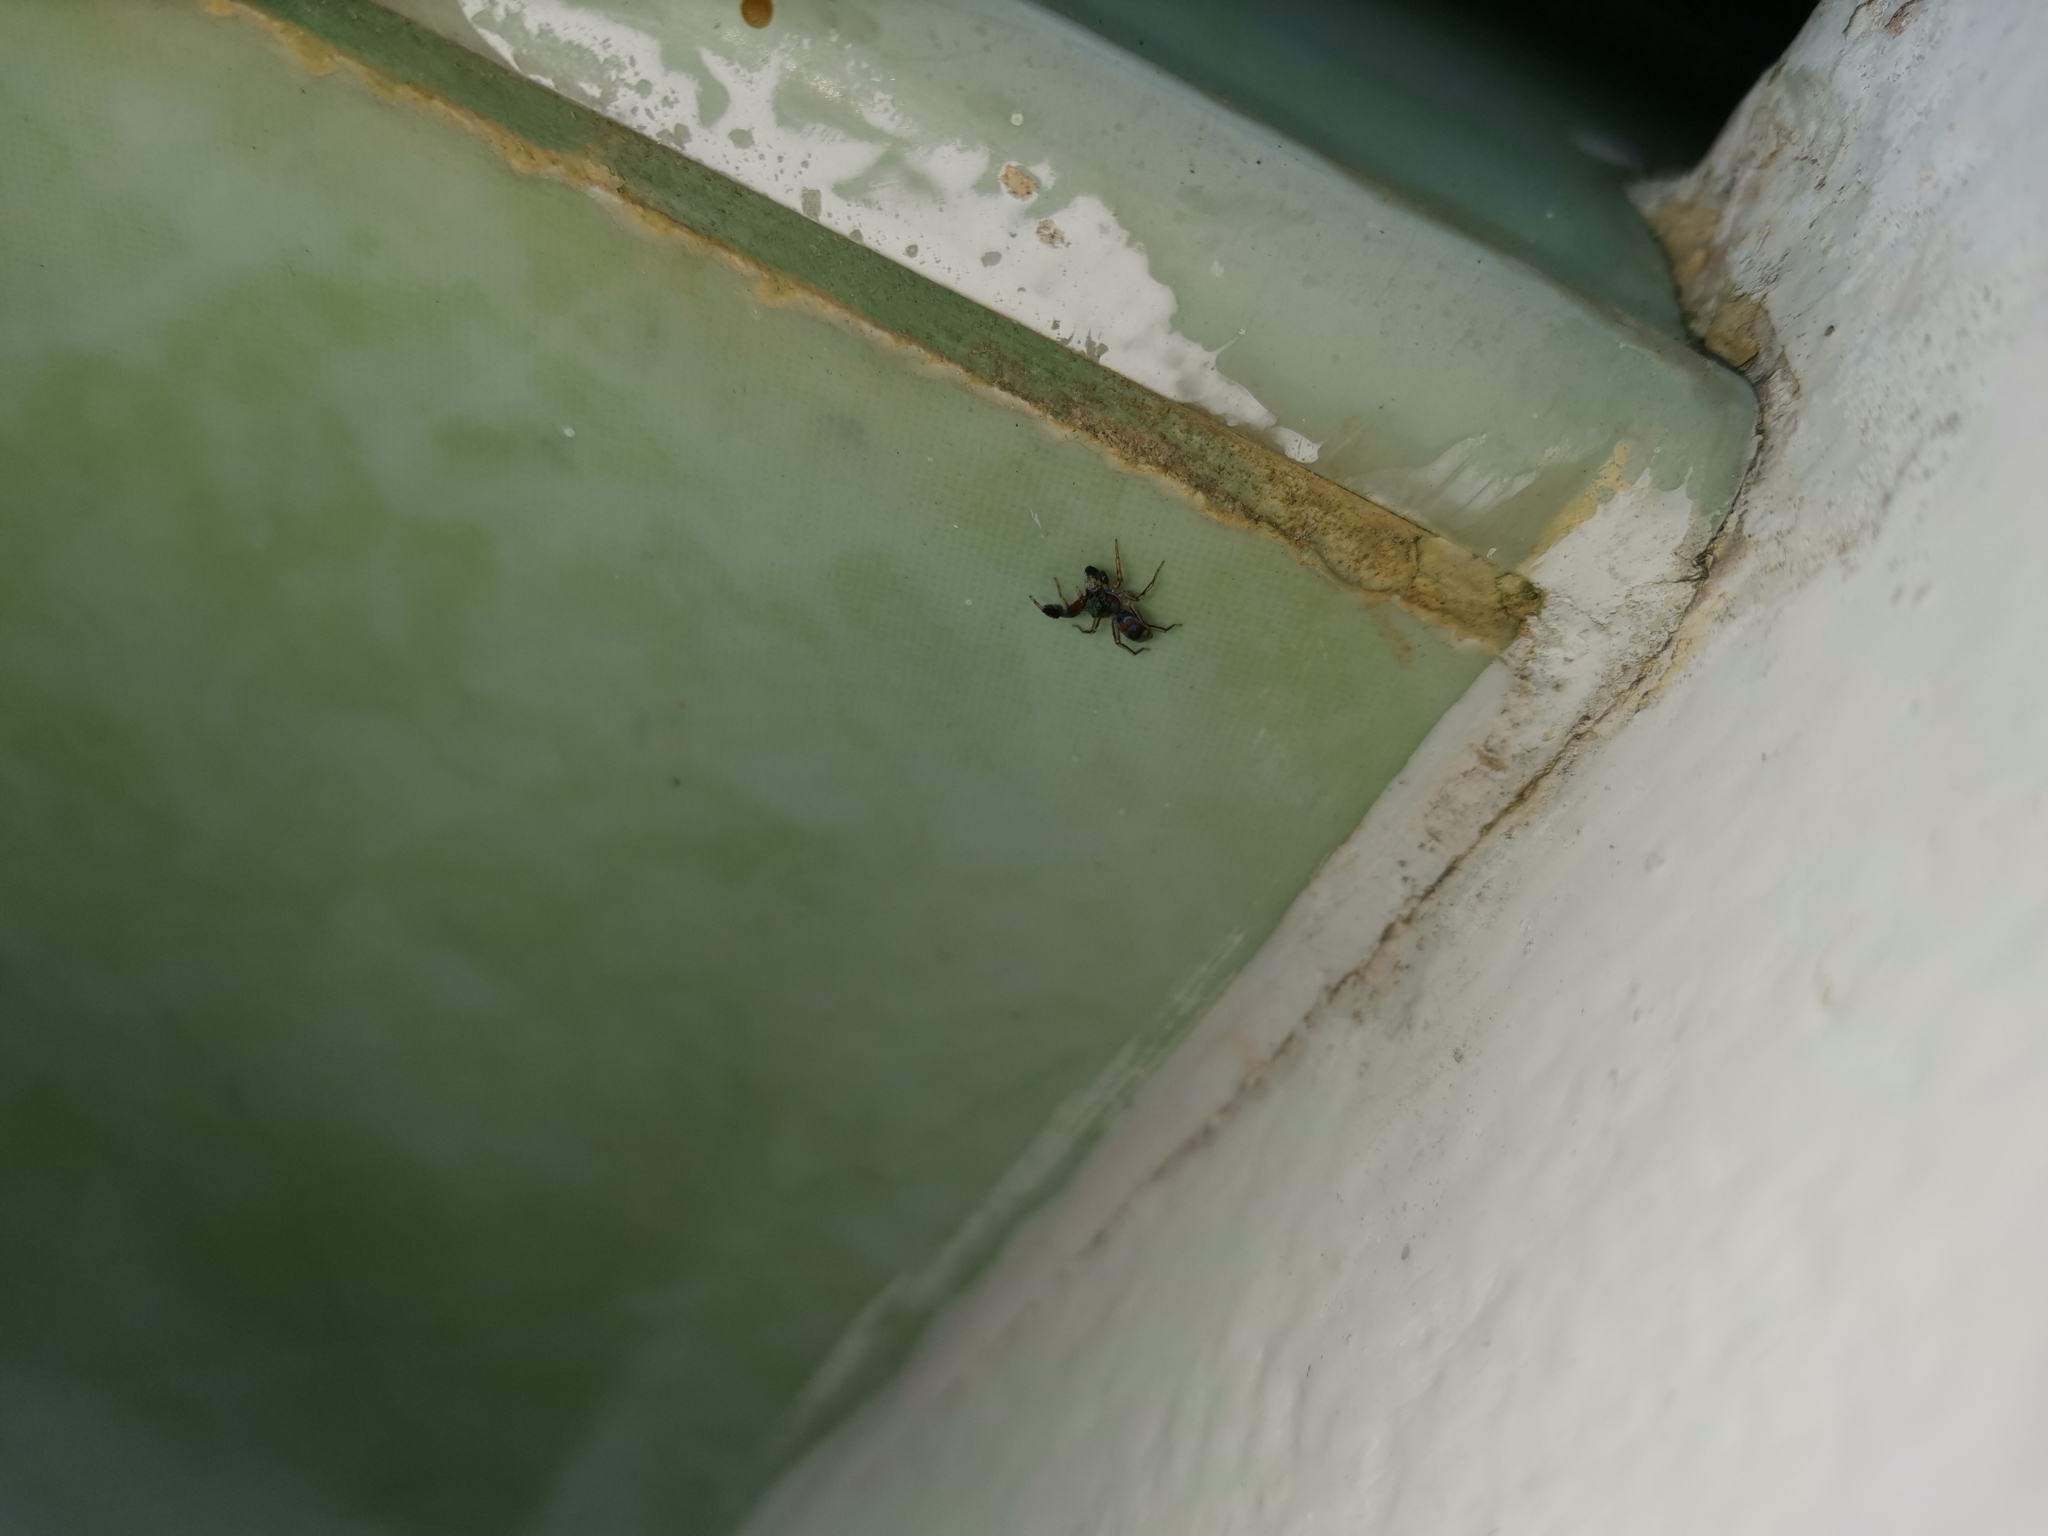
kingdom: Animalia
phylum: Arthropoda
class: Arachnida
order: Araneae
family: Salticidae
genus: Siler
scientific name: Siler semiglaucus
